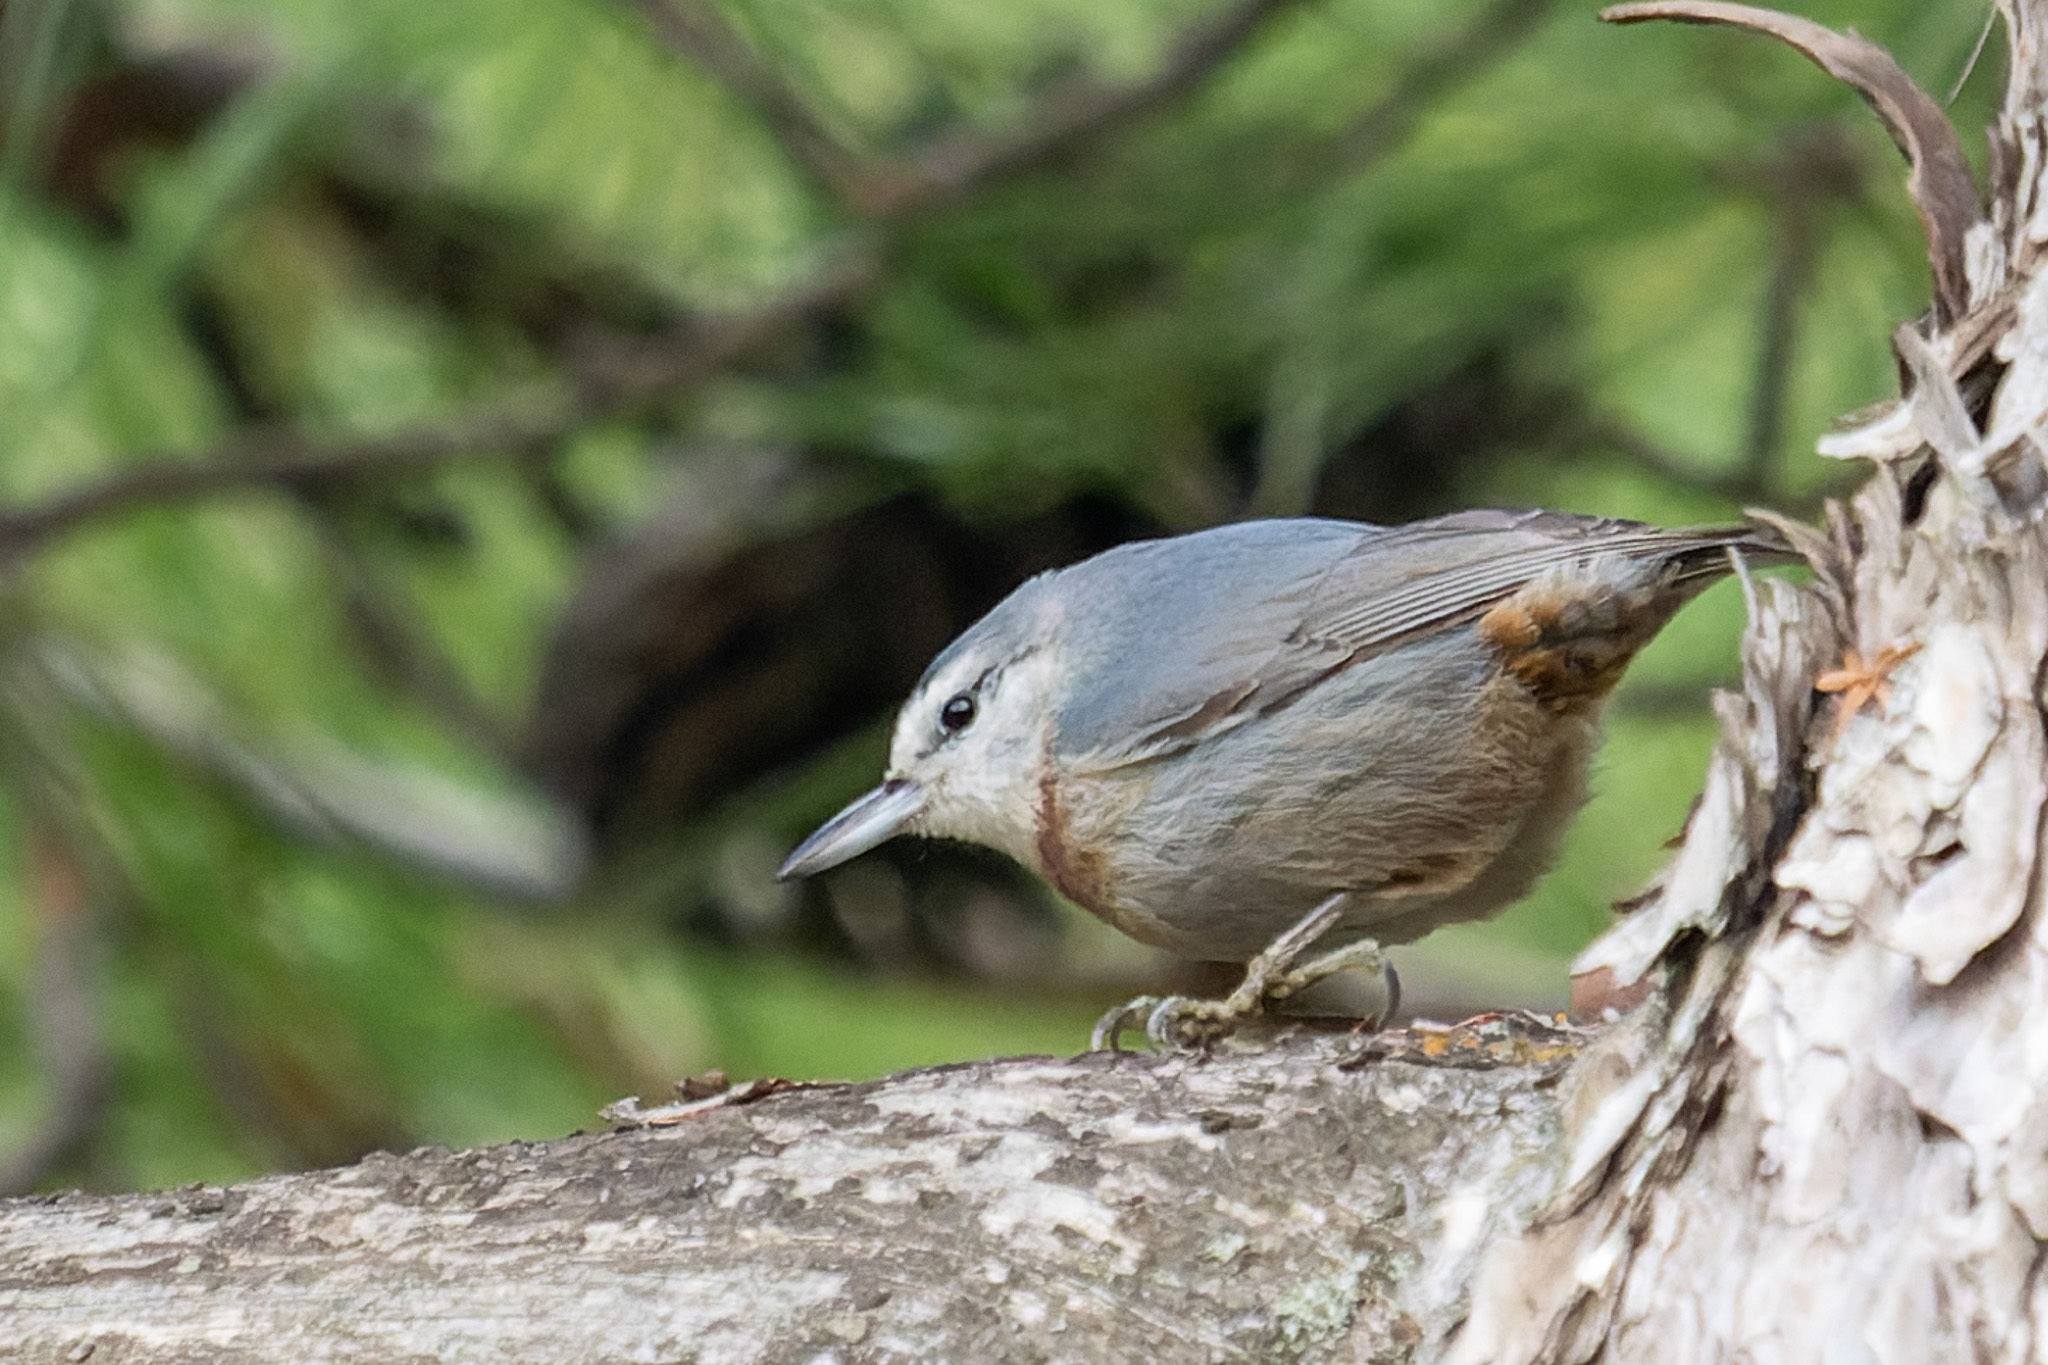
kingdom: Animalia
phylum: Chordata
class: Aves
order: Passeriformes
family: Sittidae
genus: Sitta
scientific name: Sitta krueperi
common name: Krüper's nuthatch
